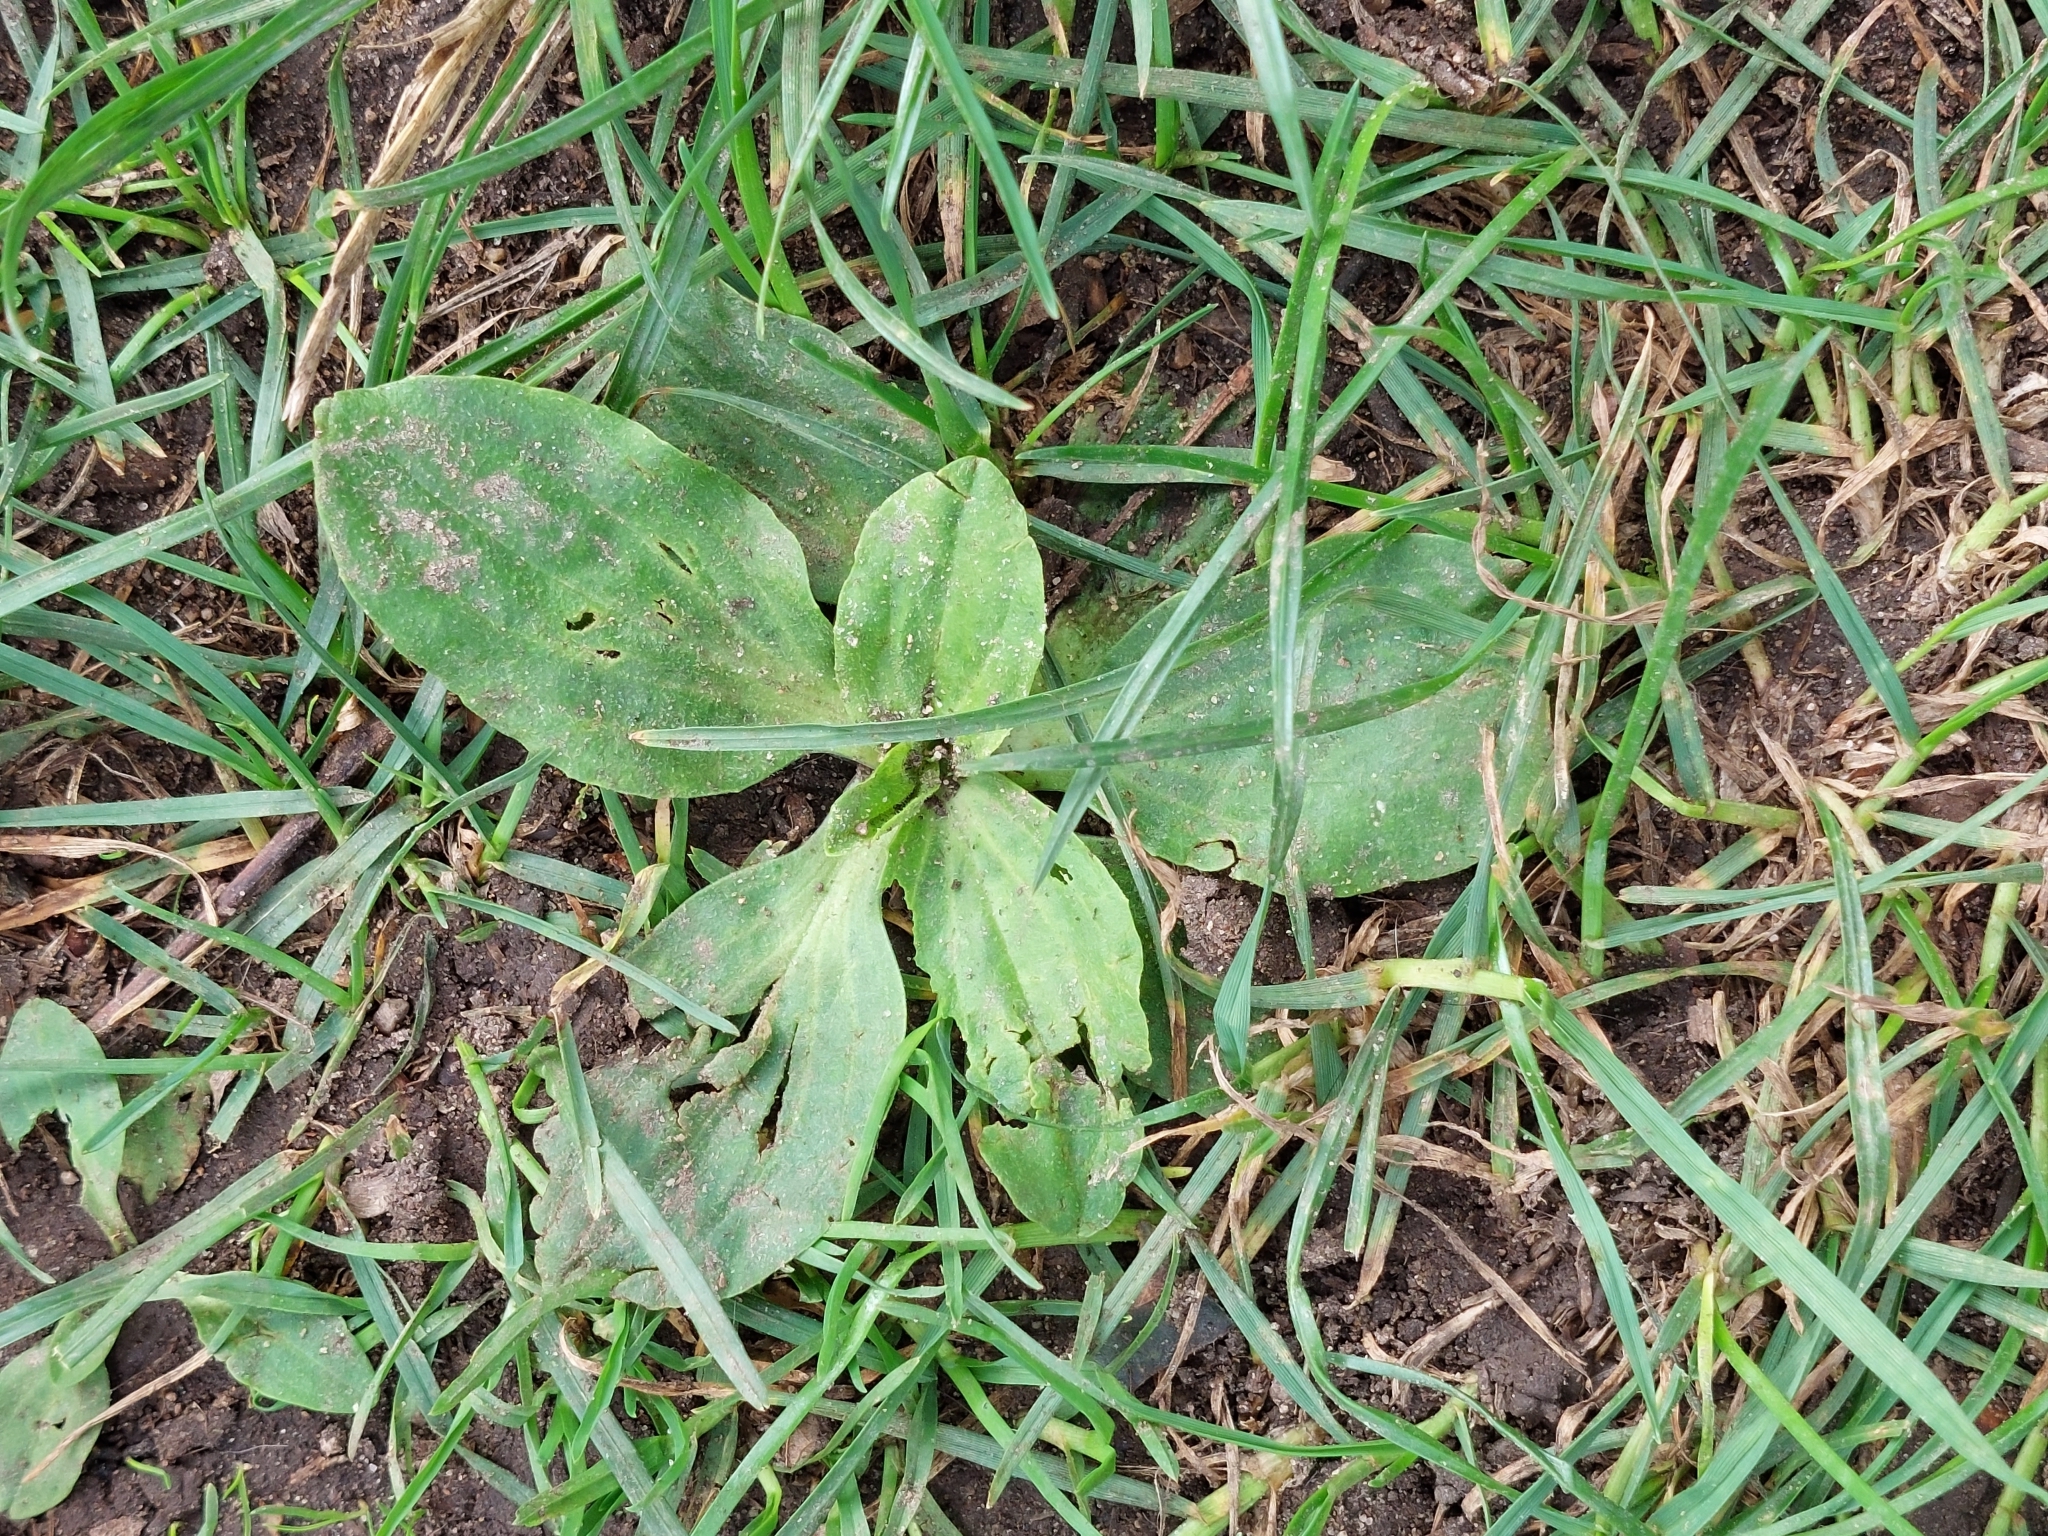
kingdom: Plantae
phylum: Tracheophyta
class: Magnoliopsida
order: Lamiales
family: Plantaginaceae
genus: Plantago
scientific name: Plantago major
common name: Common plantain
